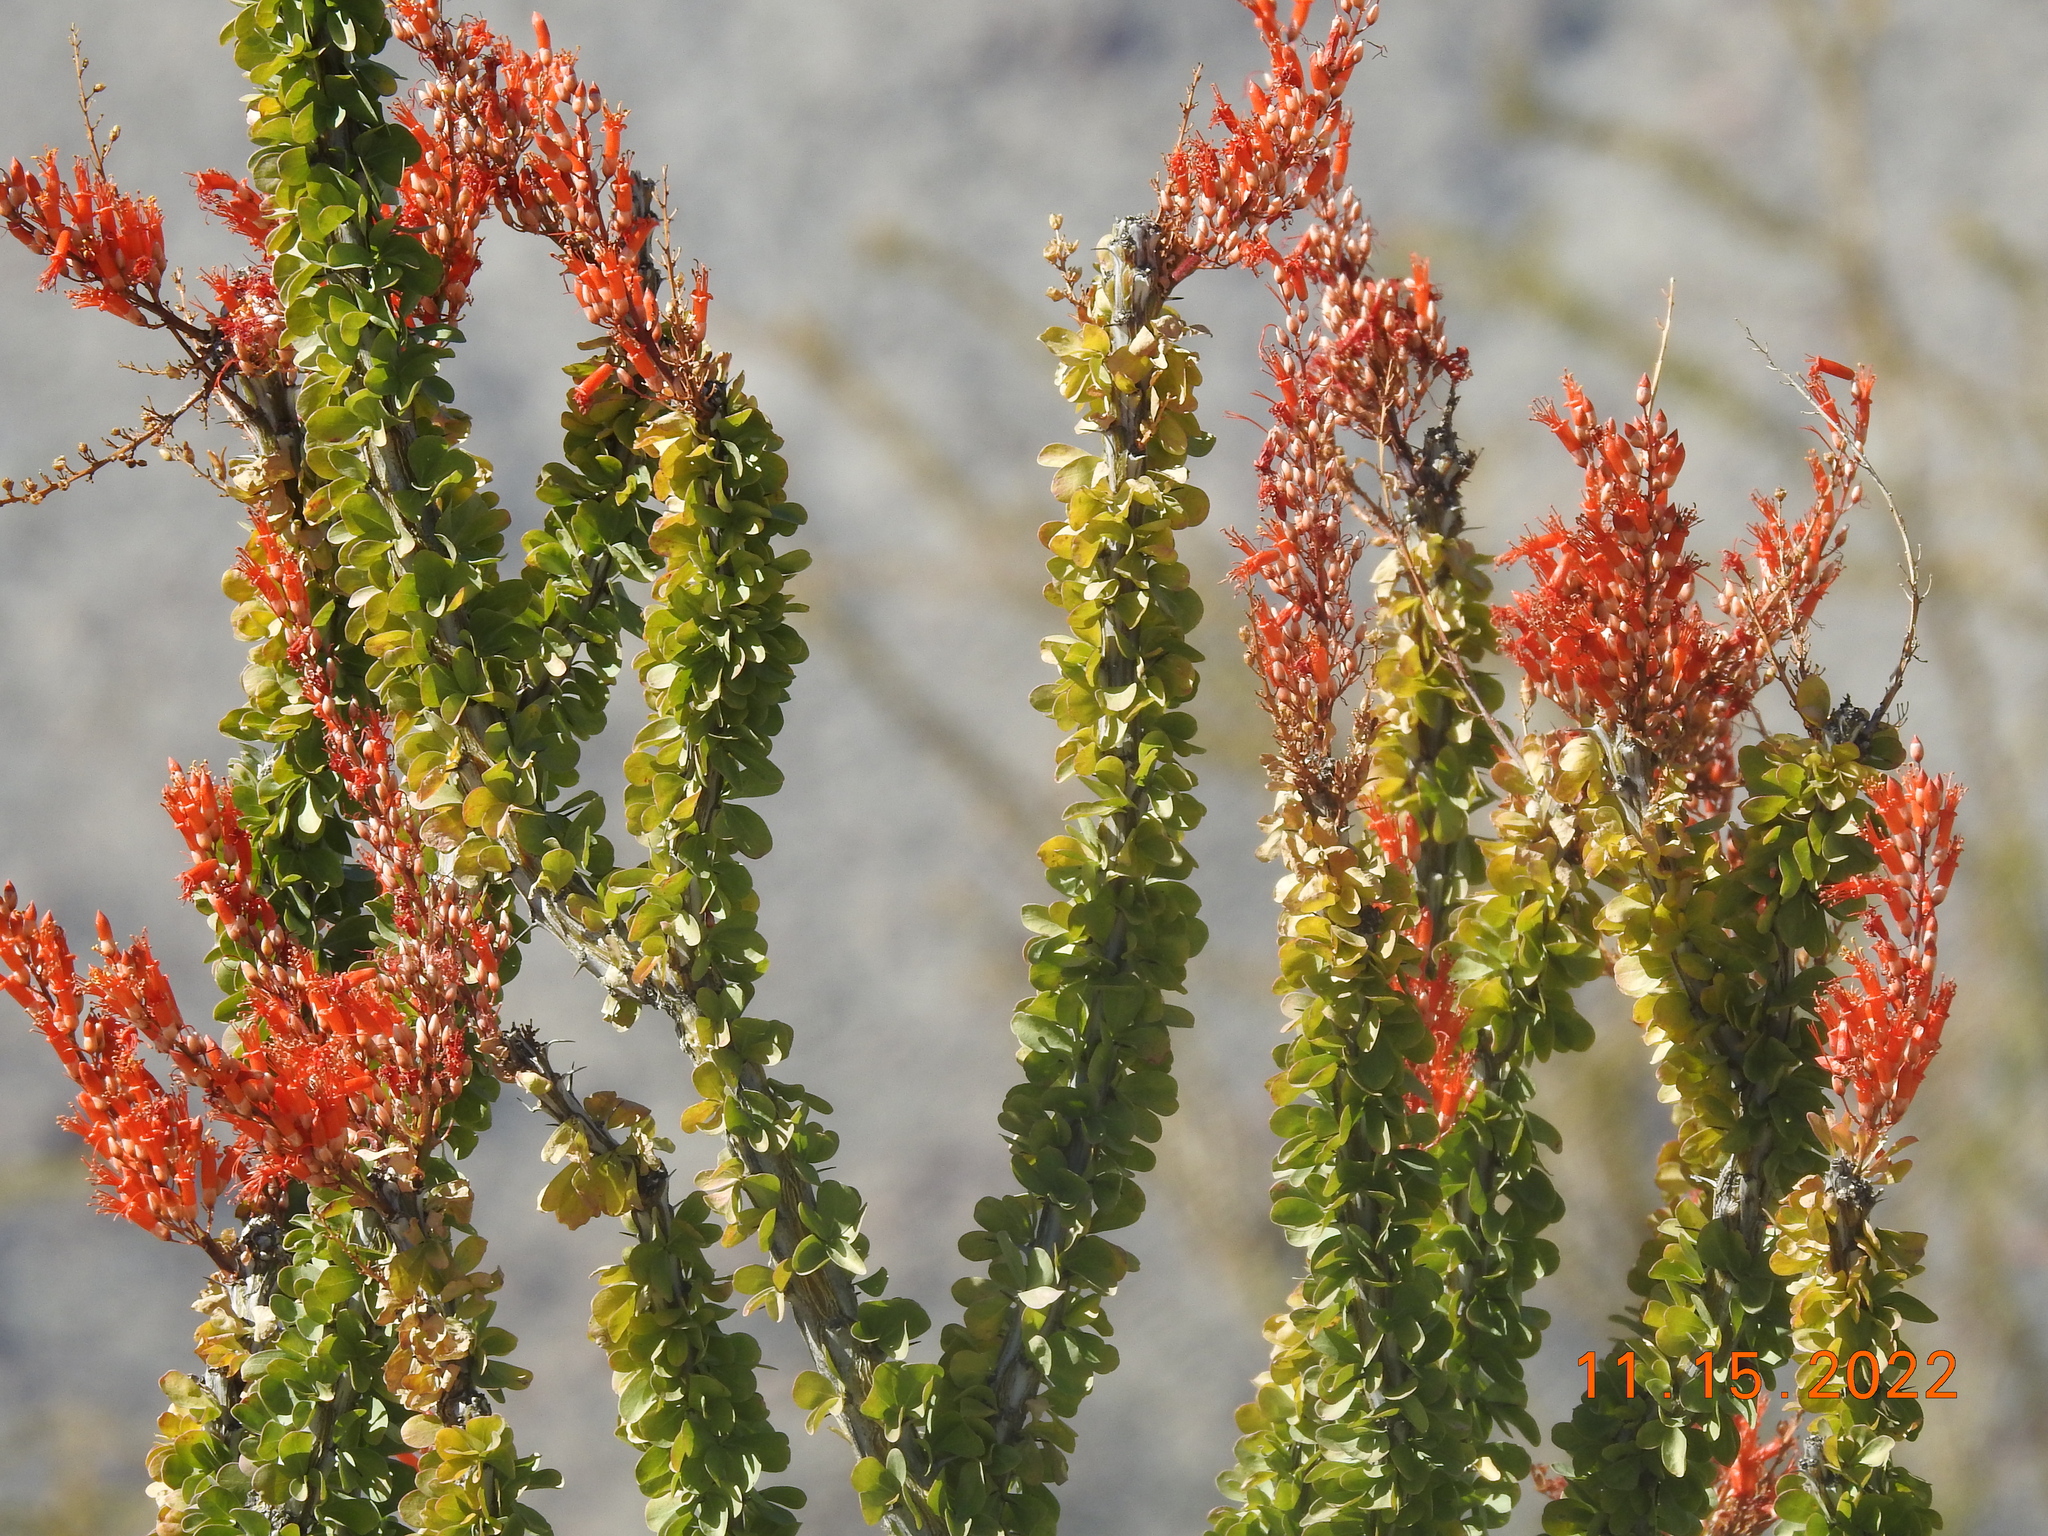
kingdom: Plantae
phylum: Tracheophyta
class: Magnoliopsida
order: Ericales
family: Fouquieriaceae
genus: Fouquieria
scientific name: Fouquieria splendens
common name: Vine-cactus
